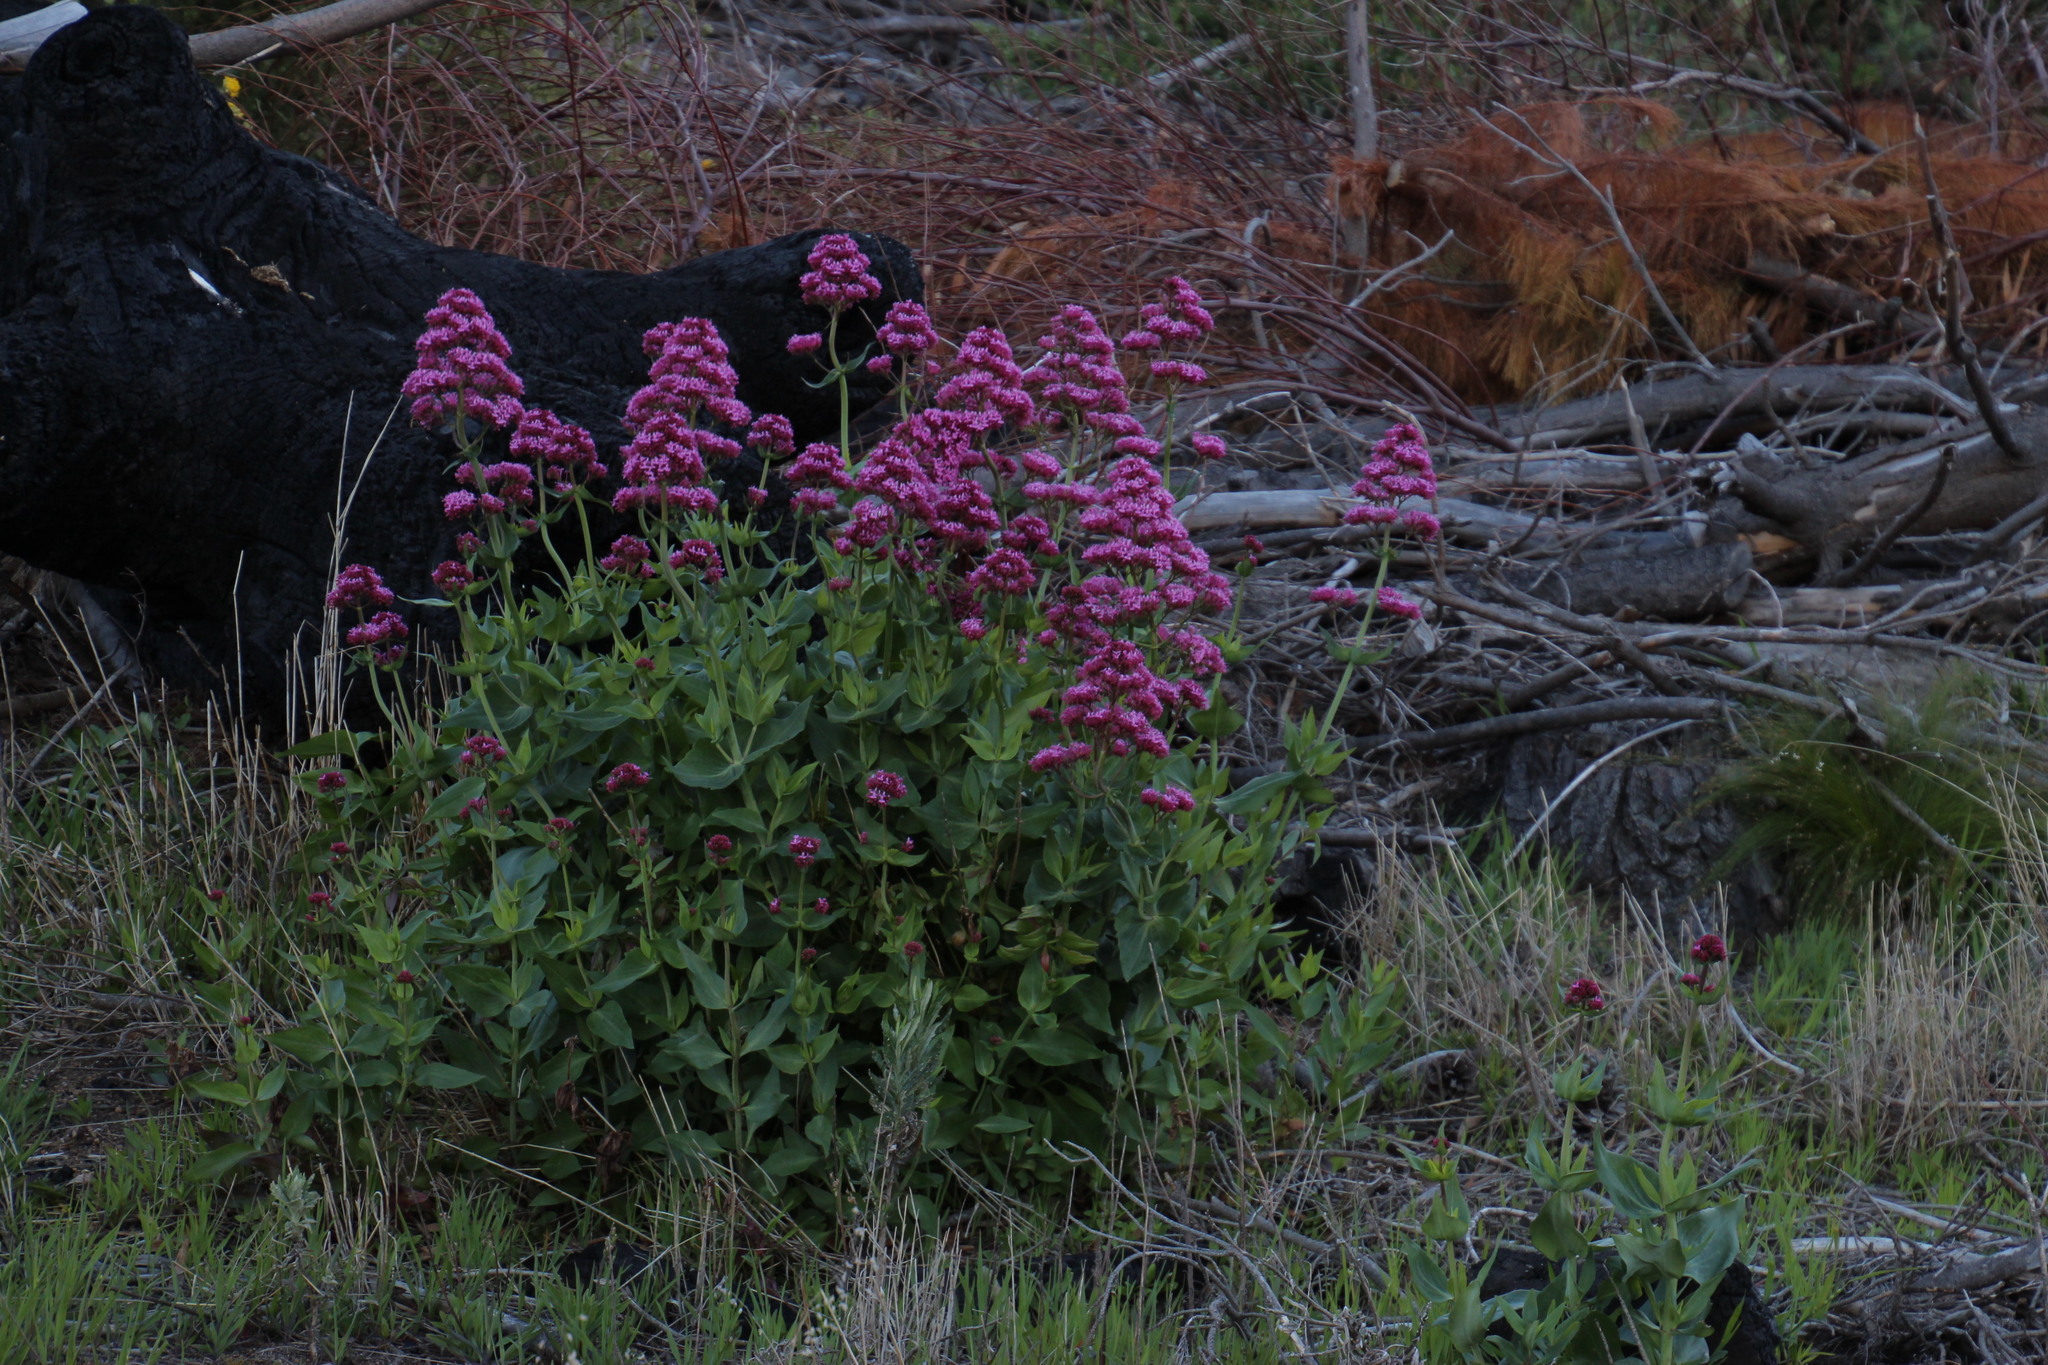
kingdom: Plantae
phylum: Tracheophyta
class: Magnoliopsida
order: Dipsacales
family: Caprifoliaceae
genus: Centranthus
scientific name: Centranthus ruber
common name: Red valerian
